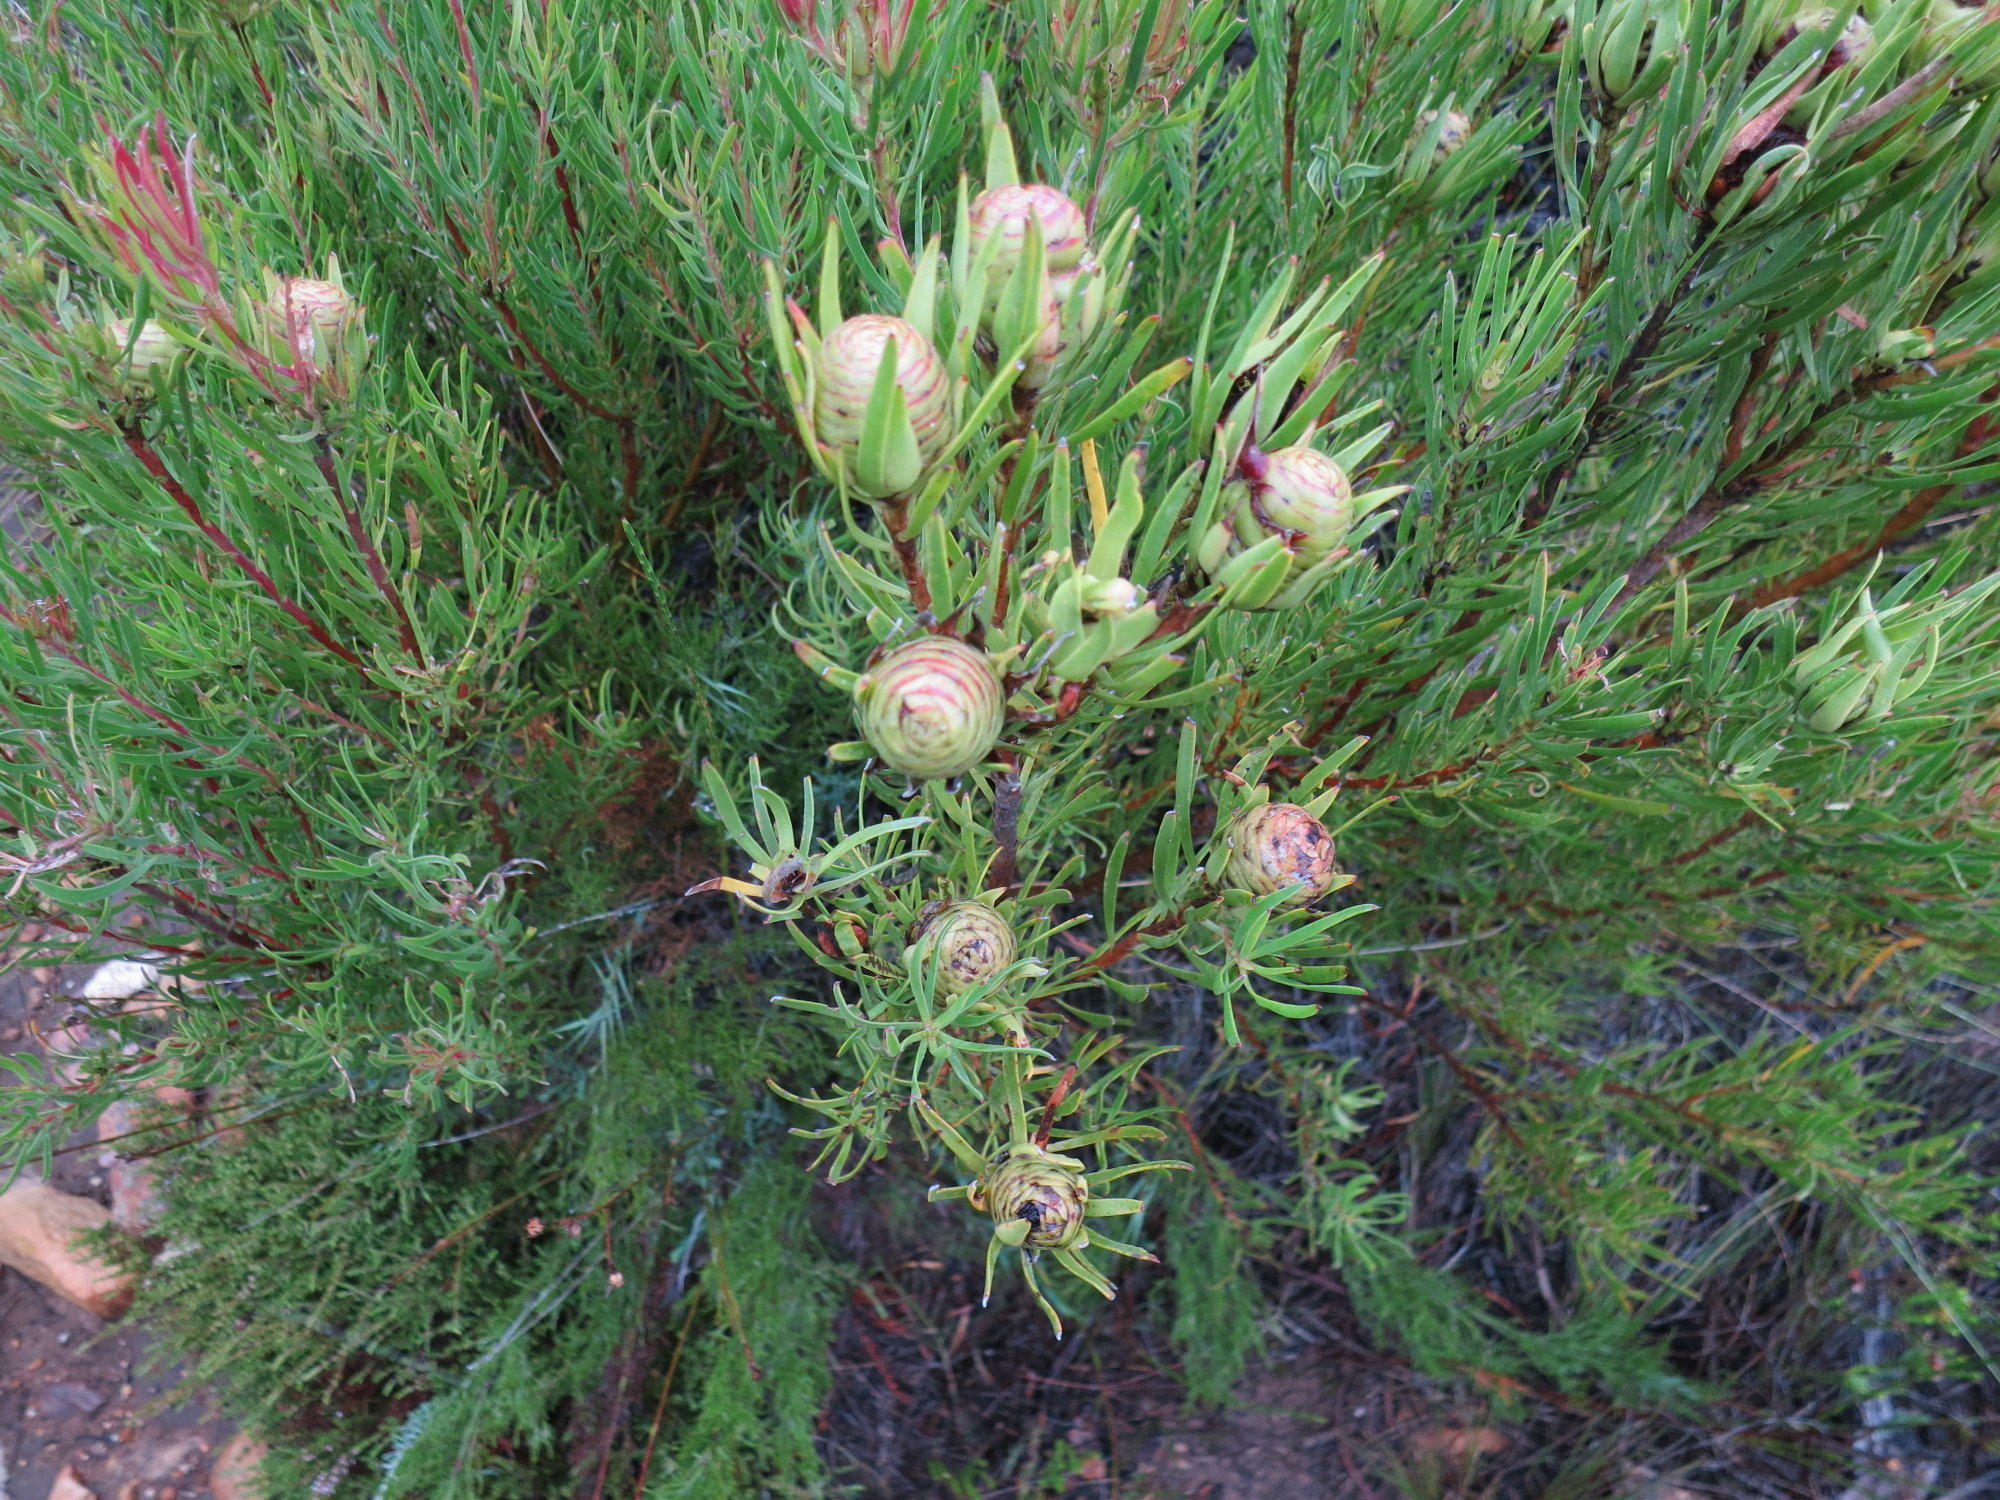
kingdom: Plantae
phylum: Tracheophyta
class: Magnoliopsida
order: Proteales
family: Proteaceae
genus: Leucadendron
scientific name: Leucadendron spissifolium
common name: Spear-leaf conebush
